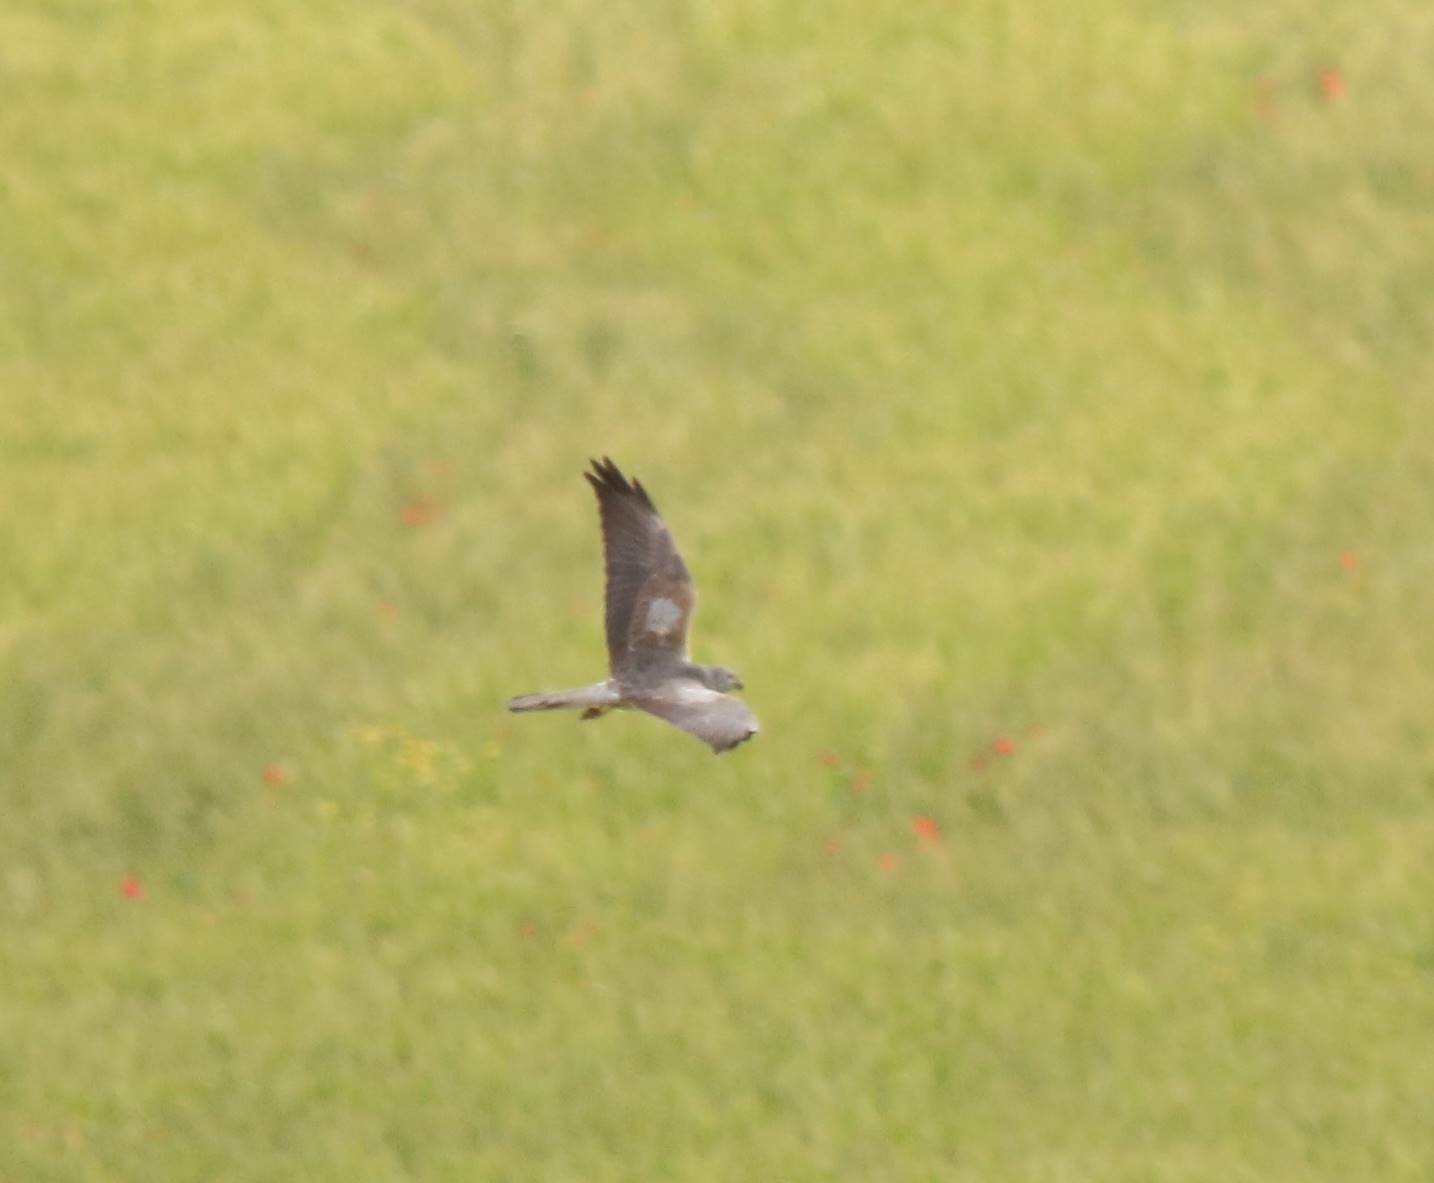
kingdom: Animalia
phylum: Chordata
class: Aves
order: Accipitriformes
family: Accipitridae
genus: Circus
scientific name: Circus pygargus
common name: Montagu's harrier
